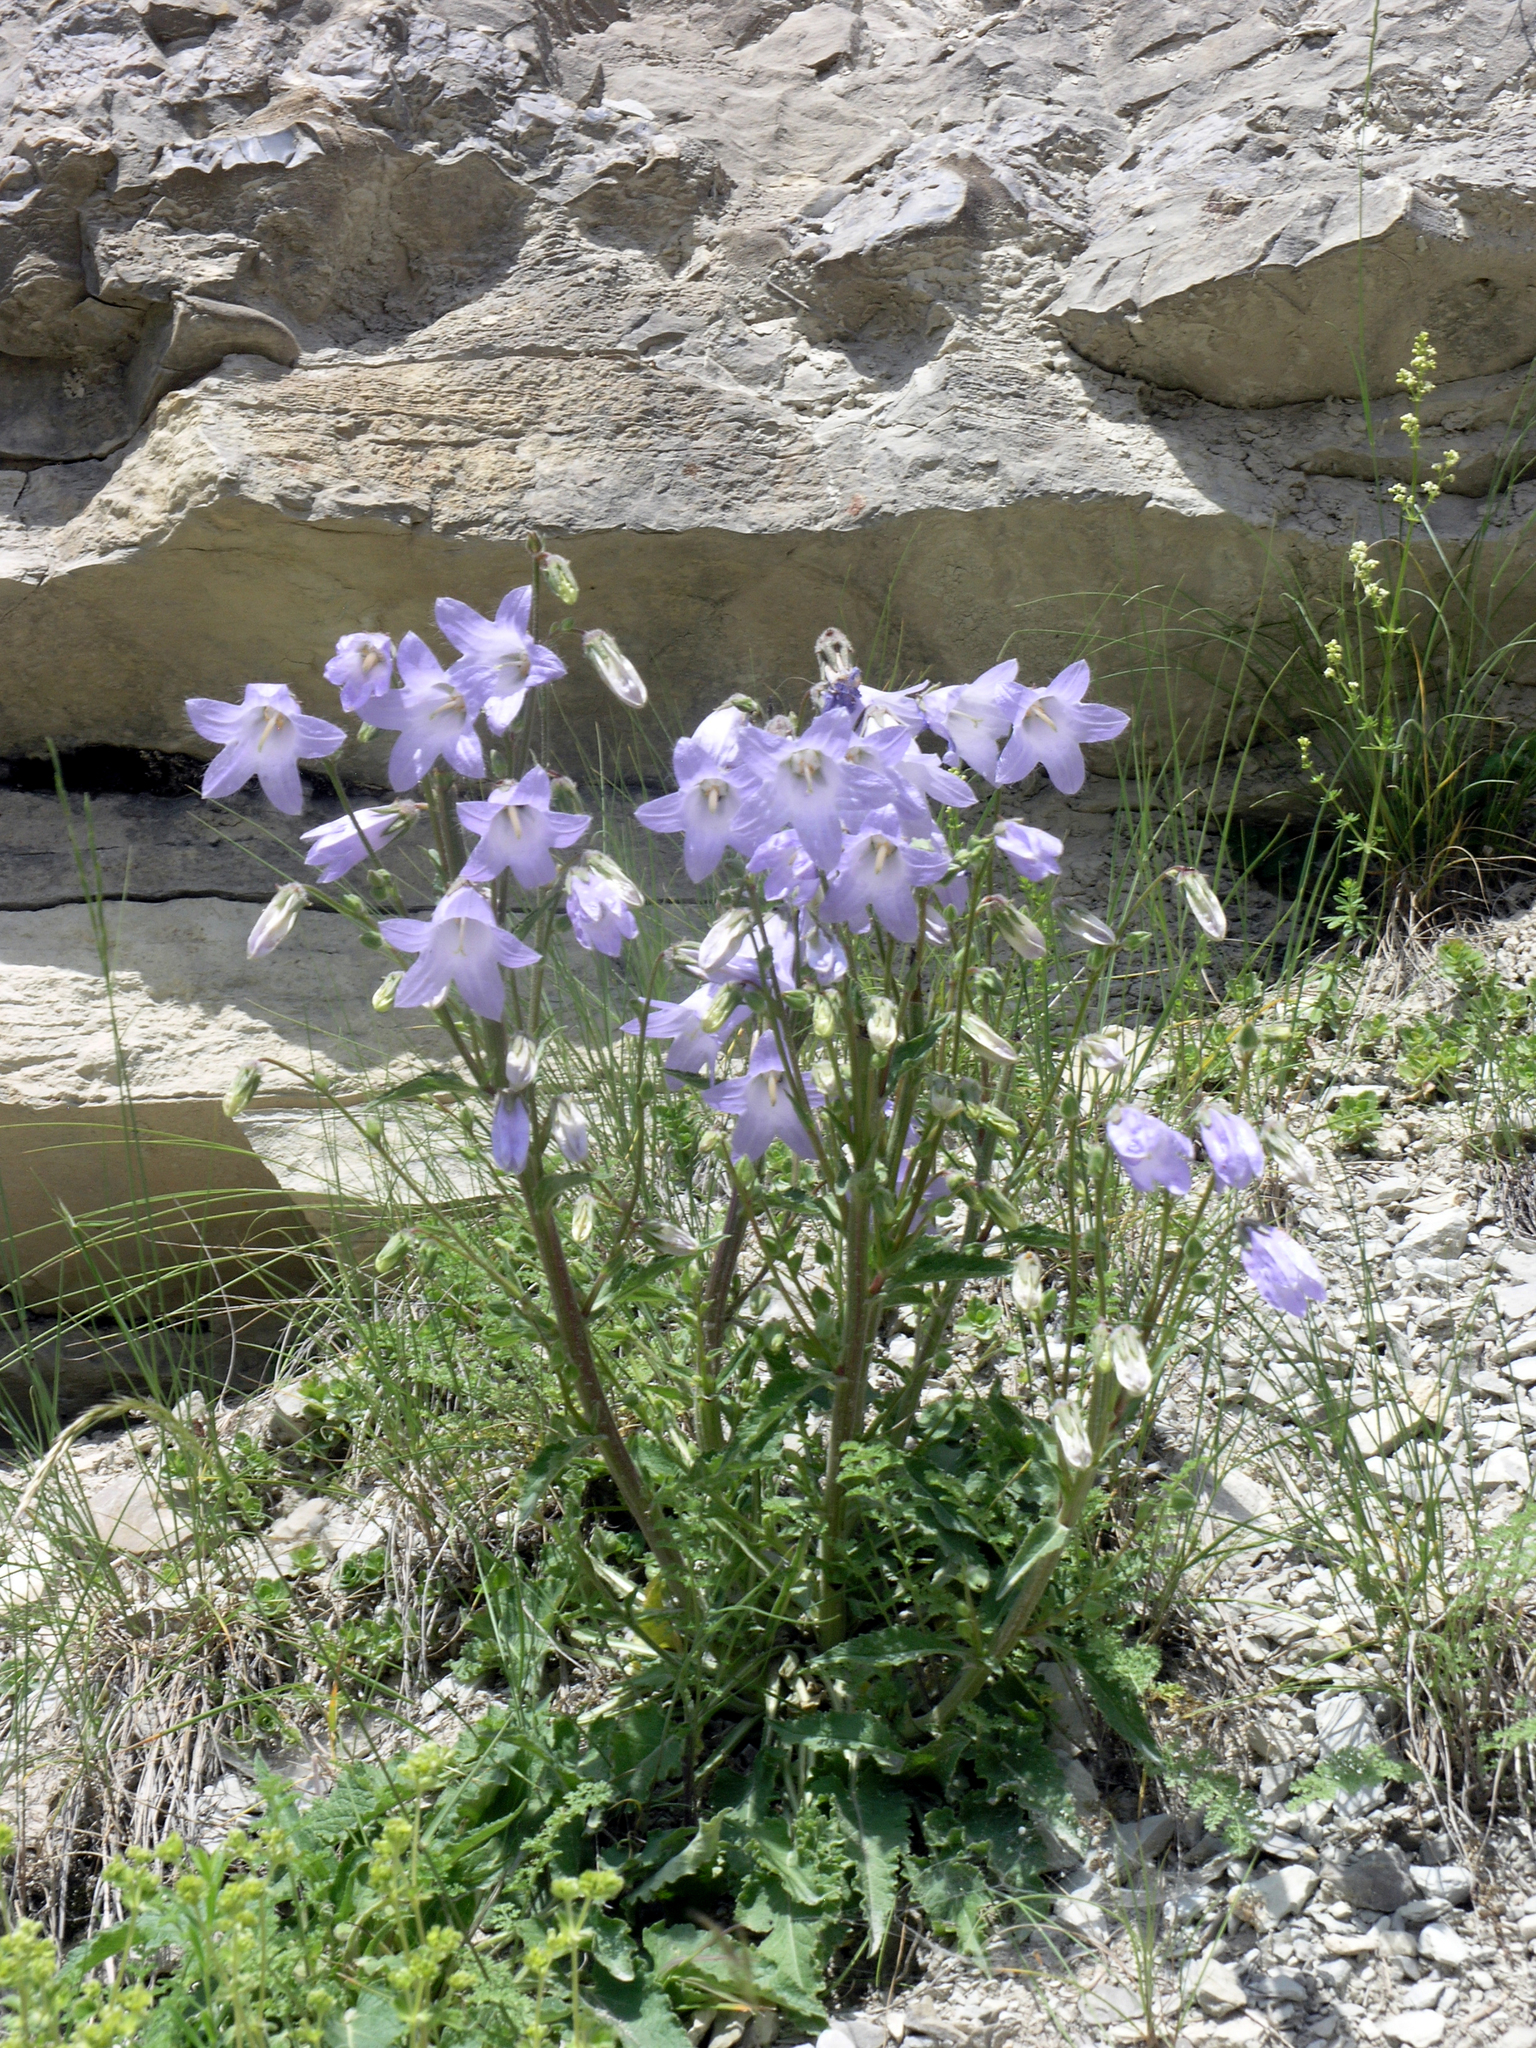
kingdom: Plantae
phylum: Tracheophyta
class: Magnoliopsida
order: Asterales
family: Campanulaceae
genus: Campanula
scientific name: Campanula sarmatica
